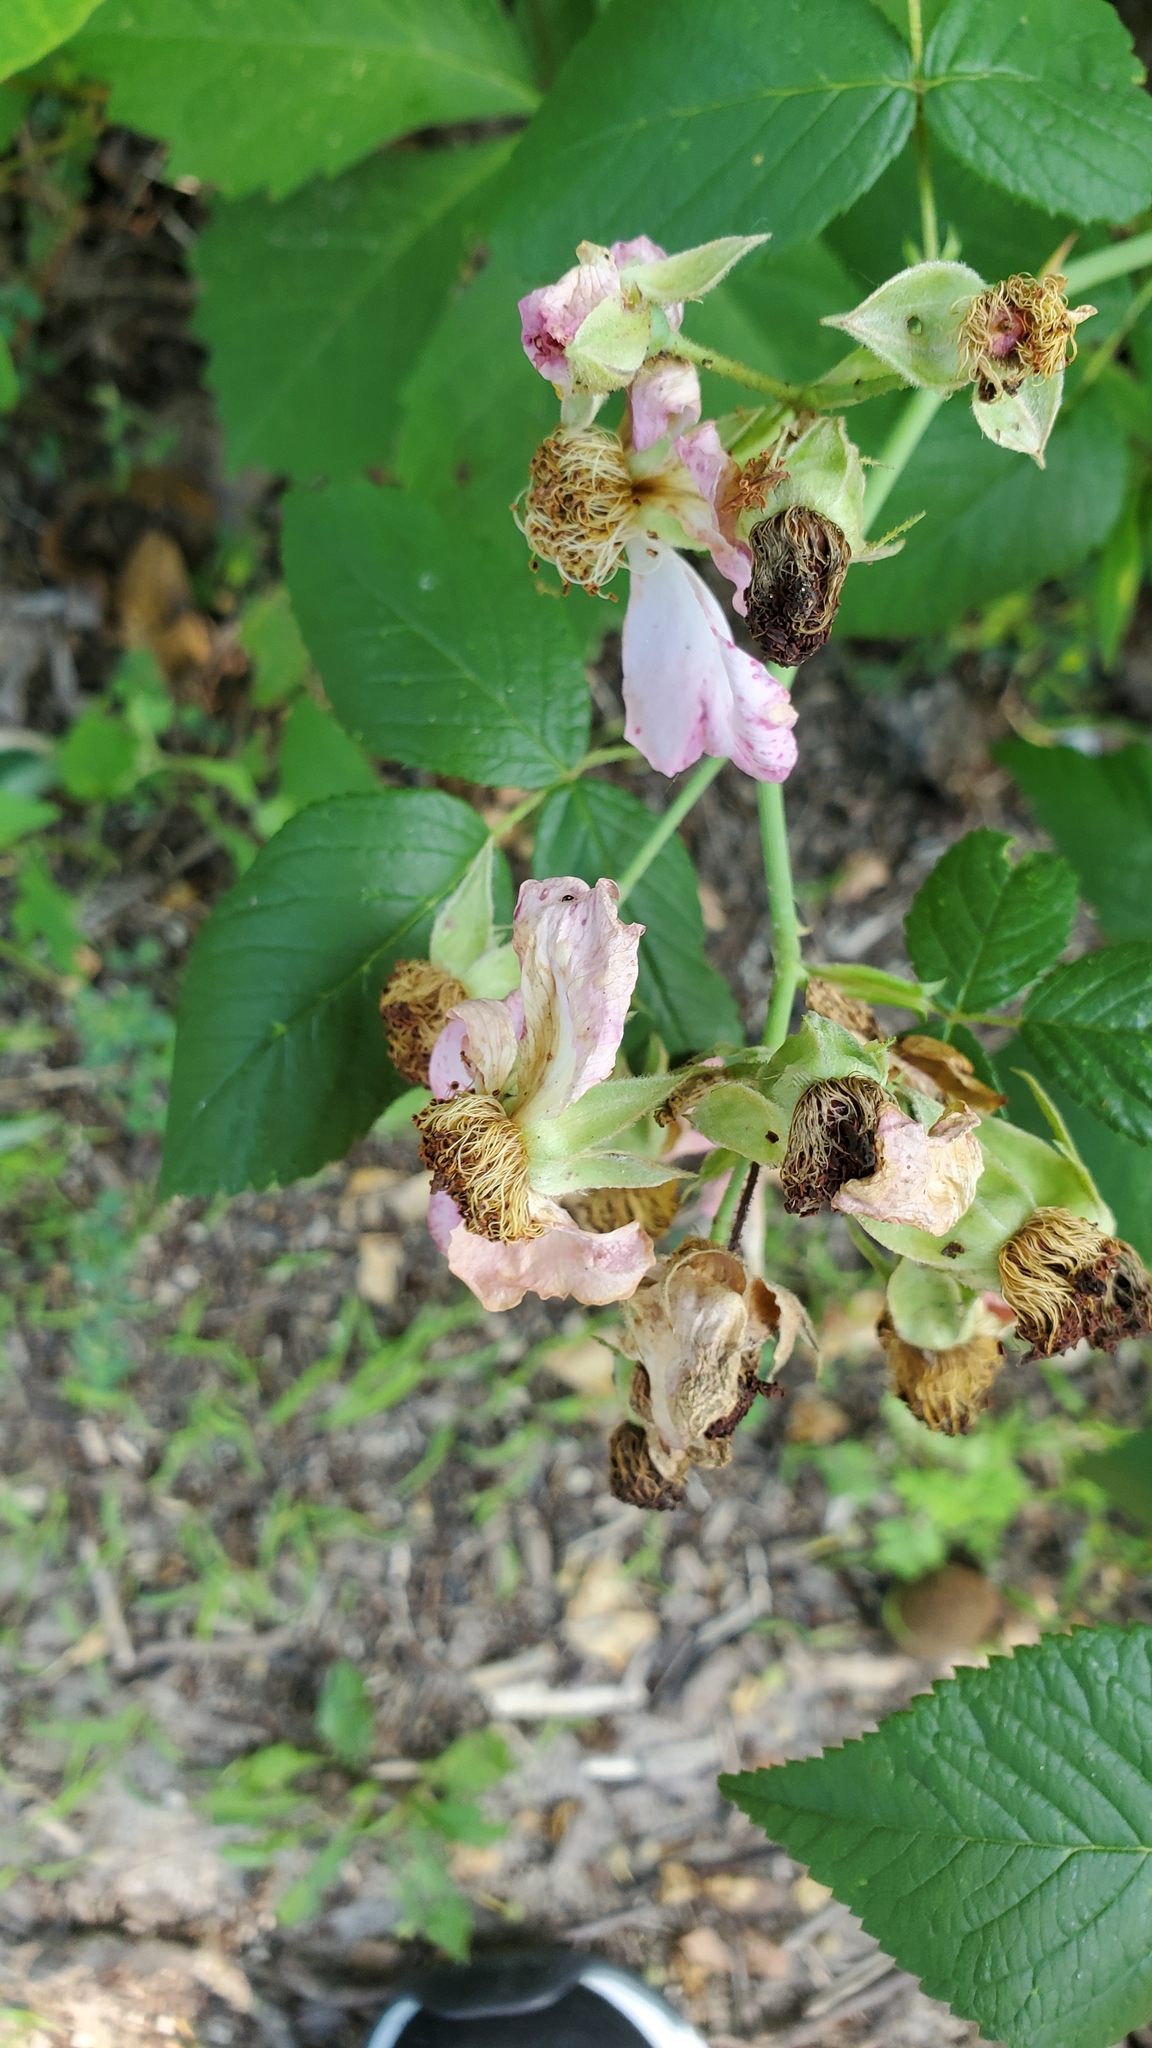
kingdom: Plantae
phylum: Tracheophyta
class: Magnoliopsida
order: Rosales
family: Rosaceae
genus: Rosa
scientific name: Rosa setigera
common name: Prairie rose
